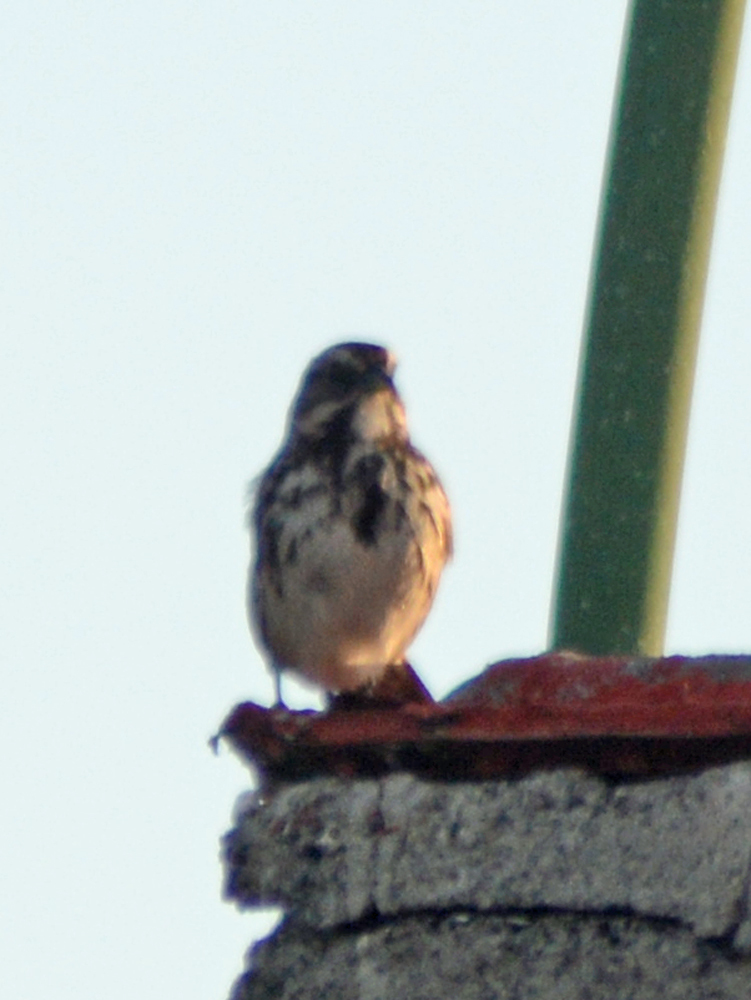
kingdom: Animalia
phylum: Chordata
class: Aves
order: Passeriformes
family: Passerellidae
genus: Melospiza
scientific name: Melospiza melodia
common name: Song sparrow
